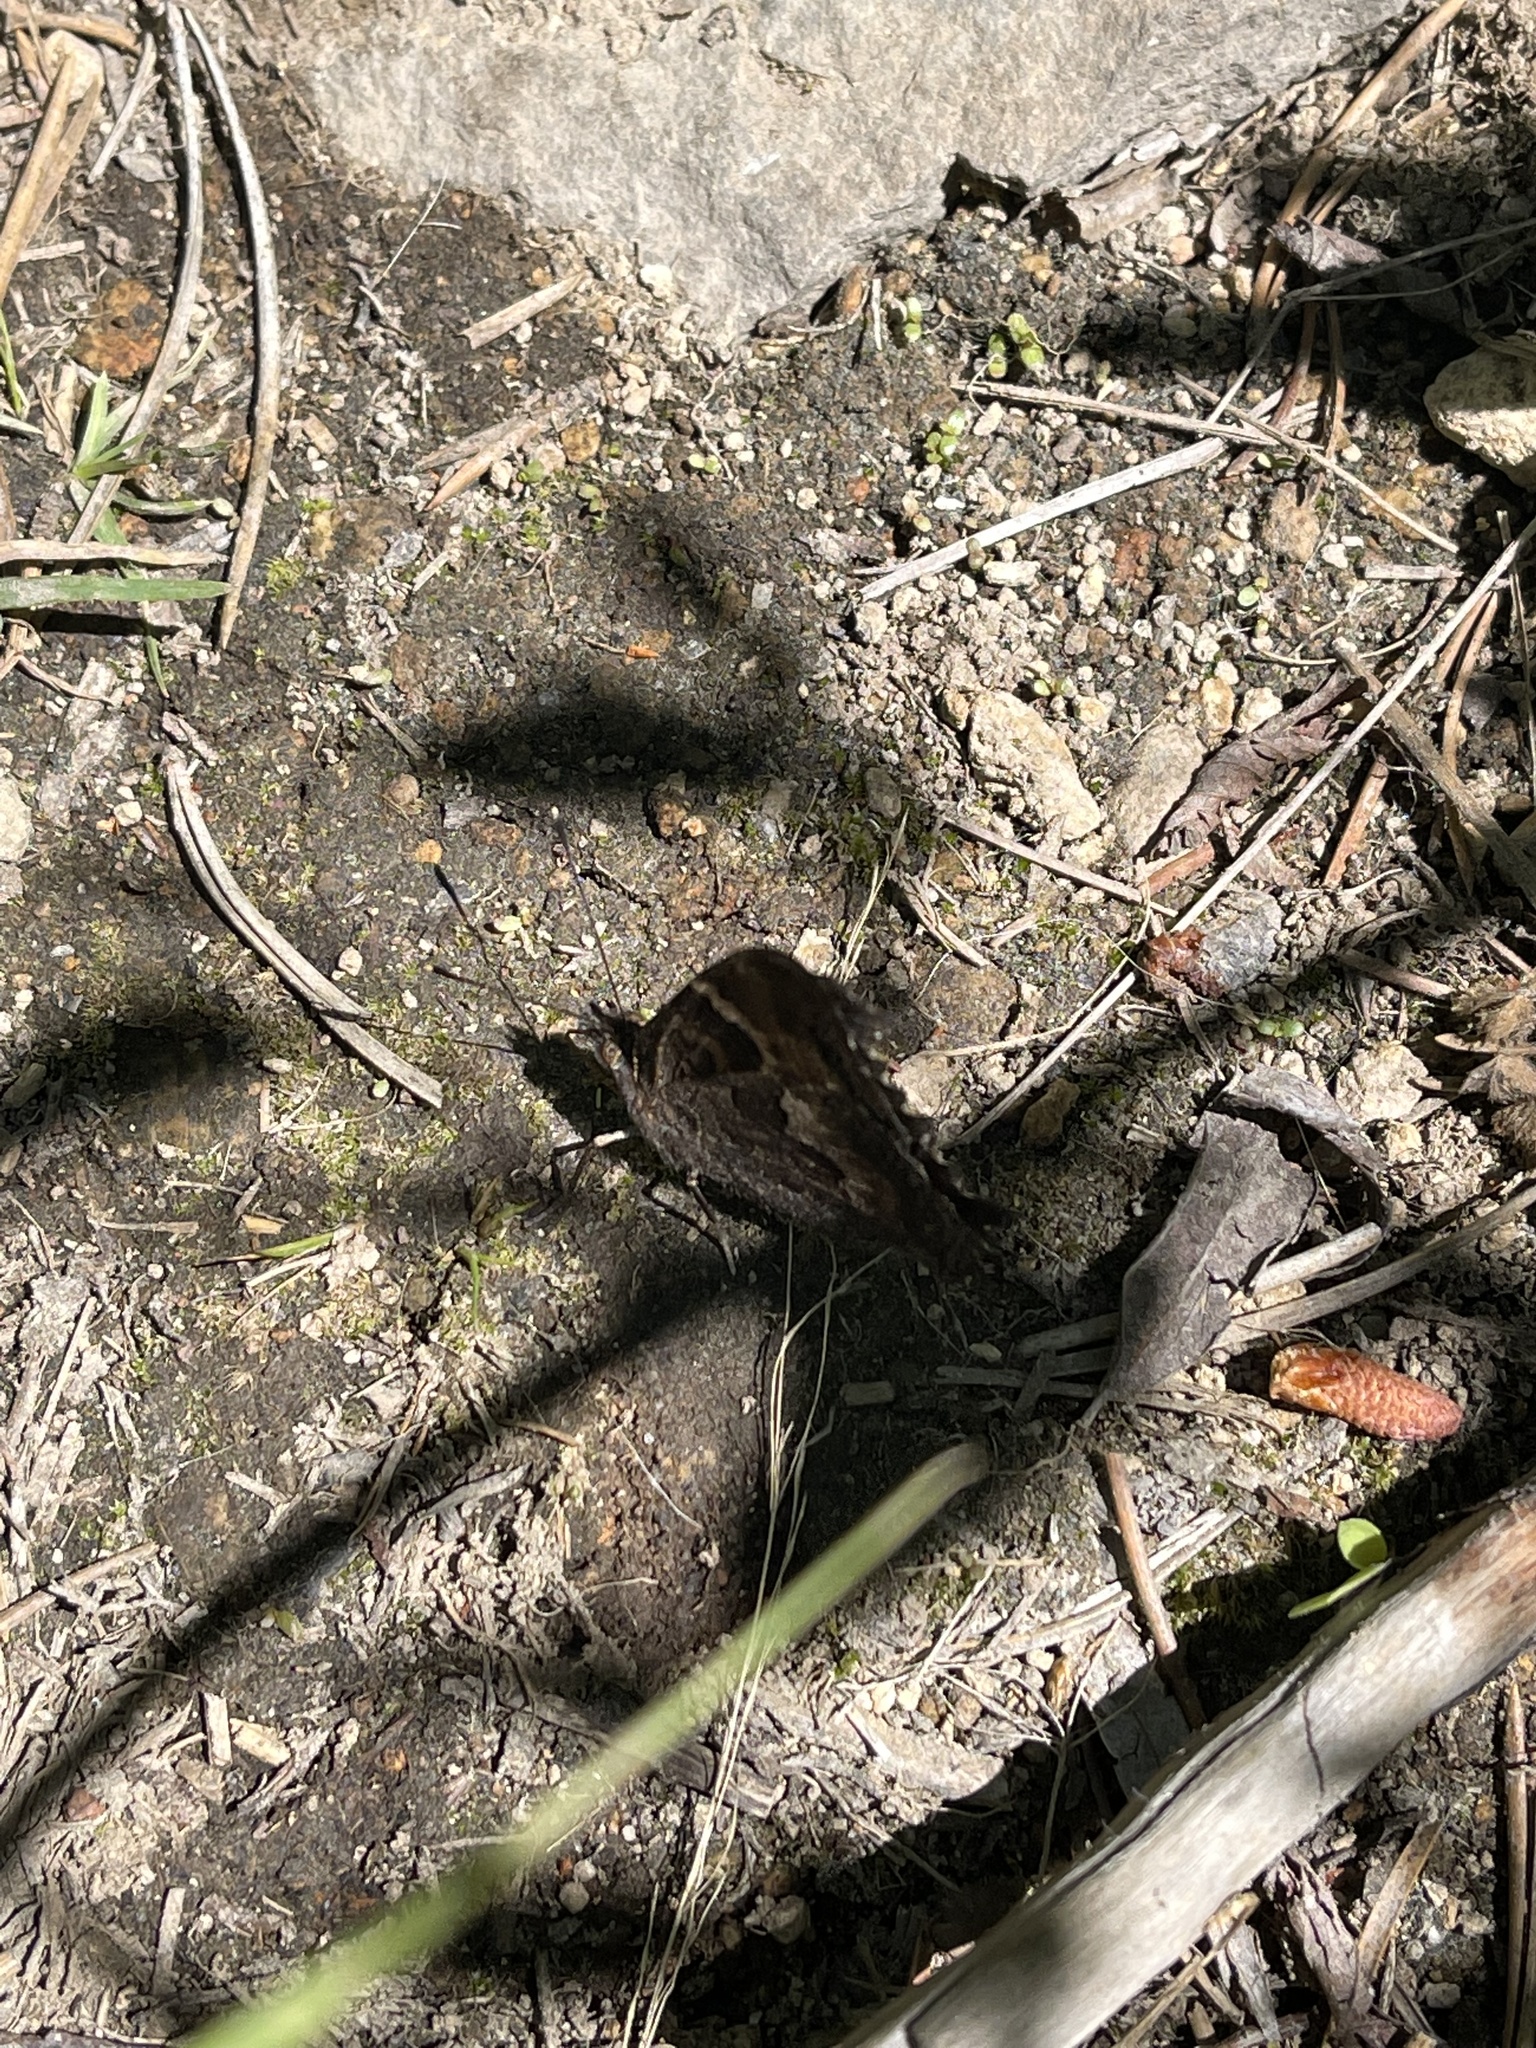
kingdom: Animalia
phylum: Arthropoda
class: Insecta
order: Lepidoptera
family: Nymphalidae
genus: Nymphalis
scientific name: Nymphalis californica
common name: California tortoiseshell
